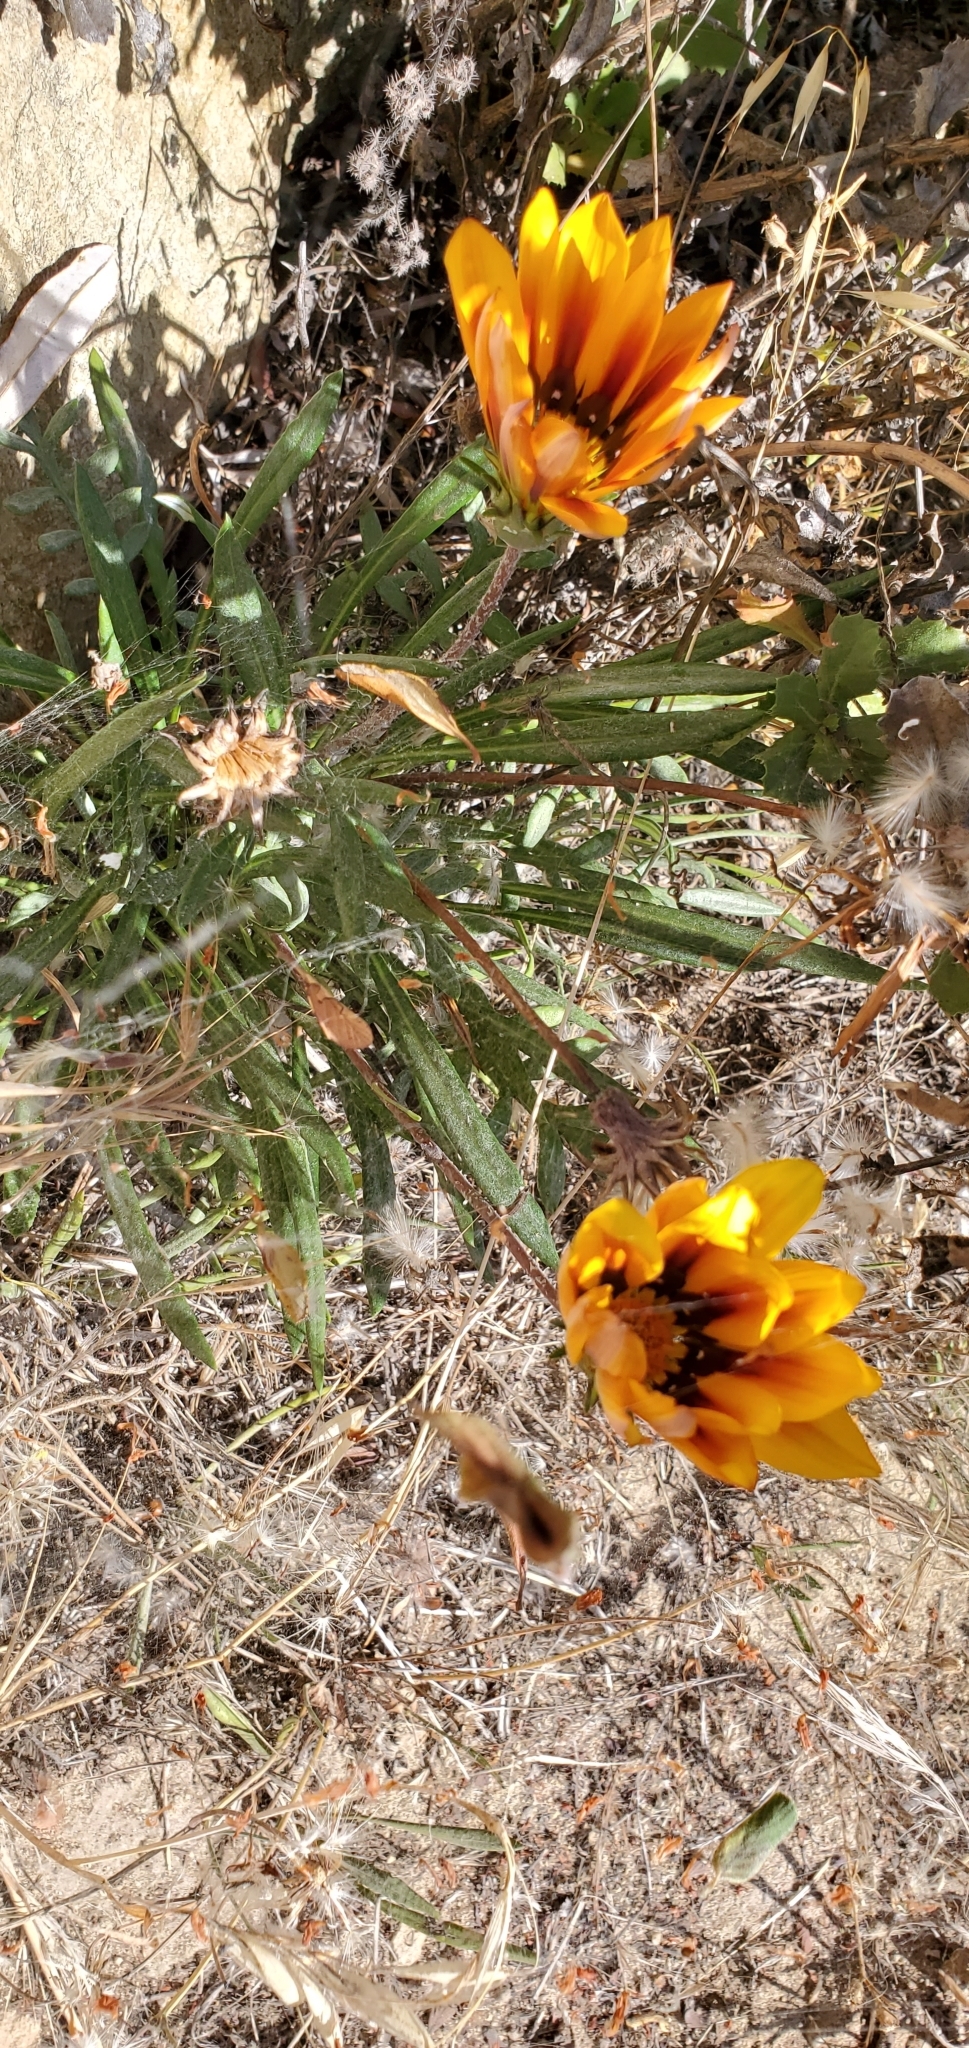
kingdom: Plantae
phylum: Tracheophyta
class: Magnoliopsida
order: Asterales
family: Asteraceae
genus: Gazania
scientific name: Gazania splendens
